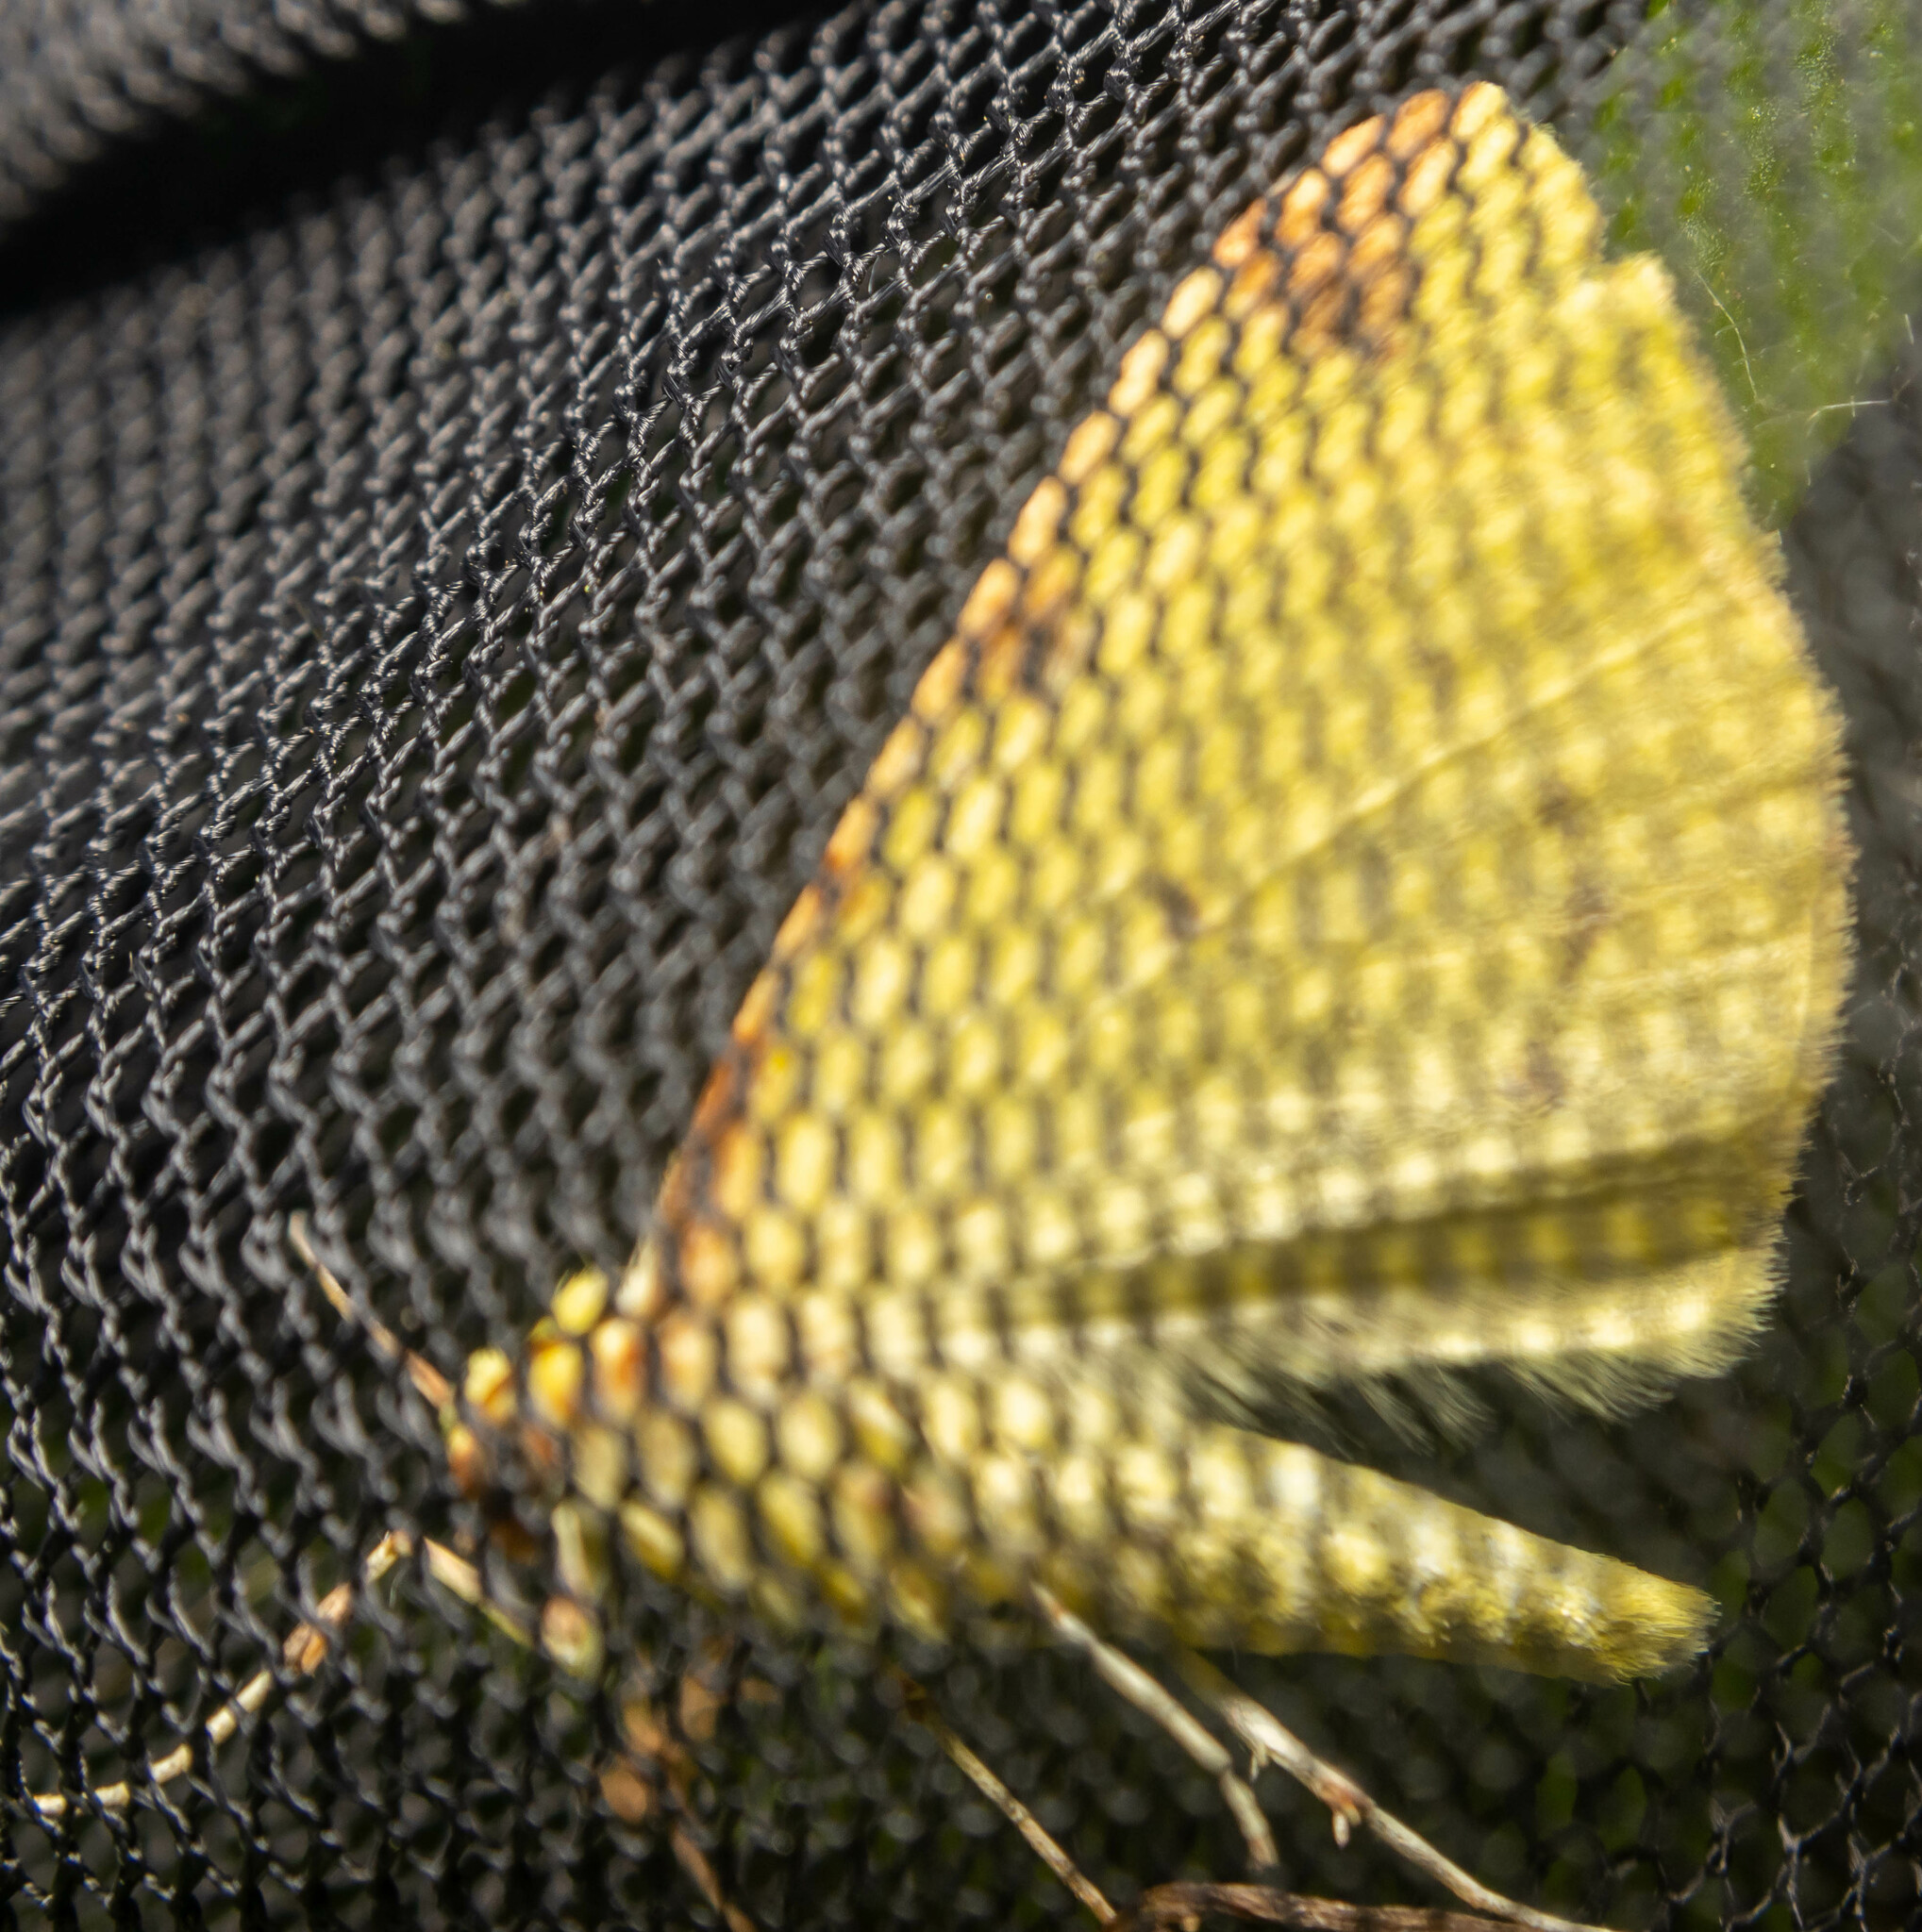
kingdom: Animalia
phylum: Arthropoda
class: Insecta
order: Lepidoptera
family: Geometridae
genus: Opisthograptis
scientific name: Opisthograptis luteolata
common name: Brimstone moth
